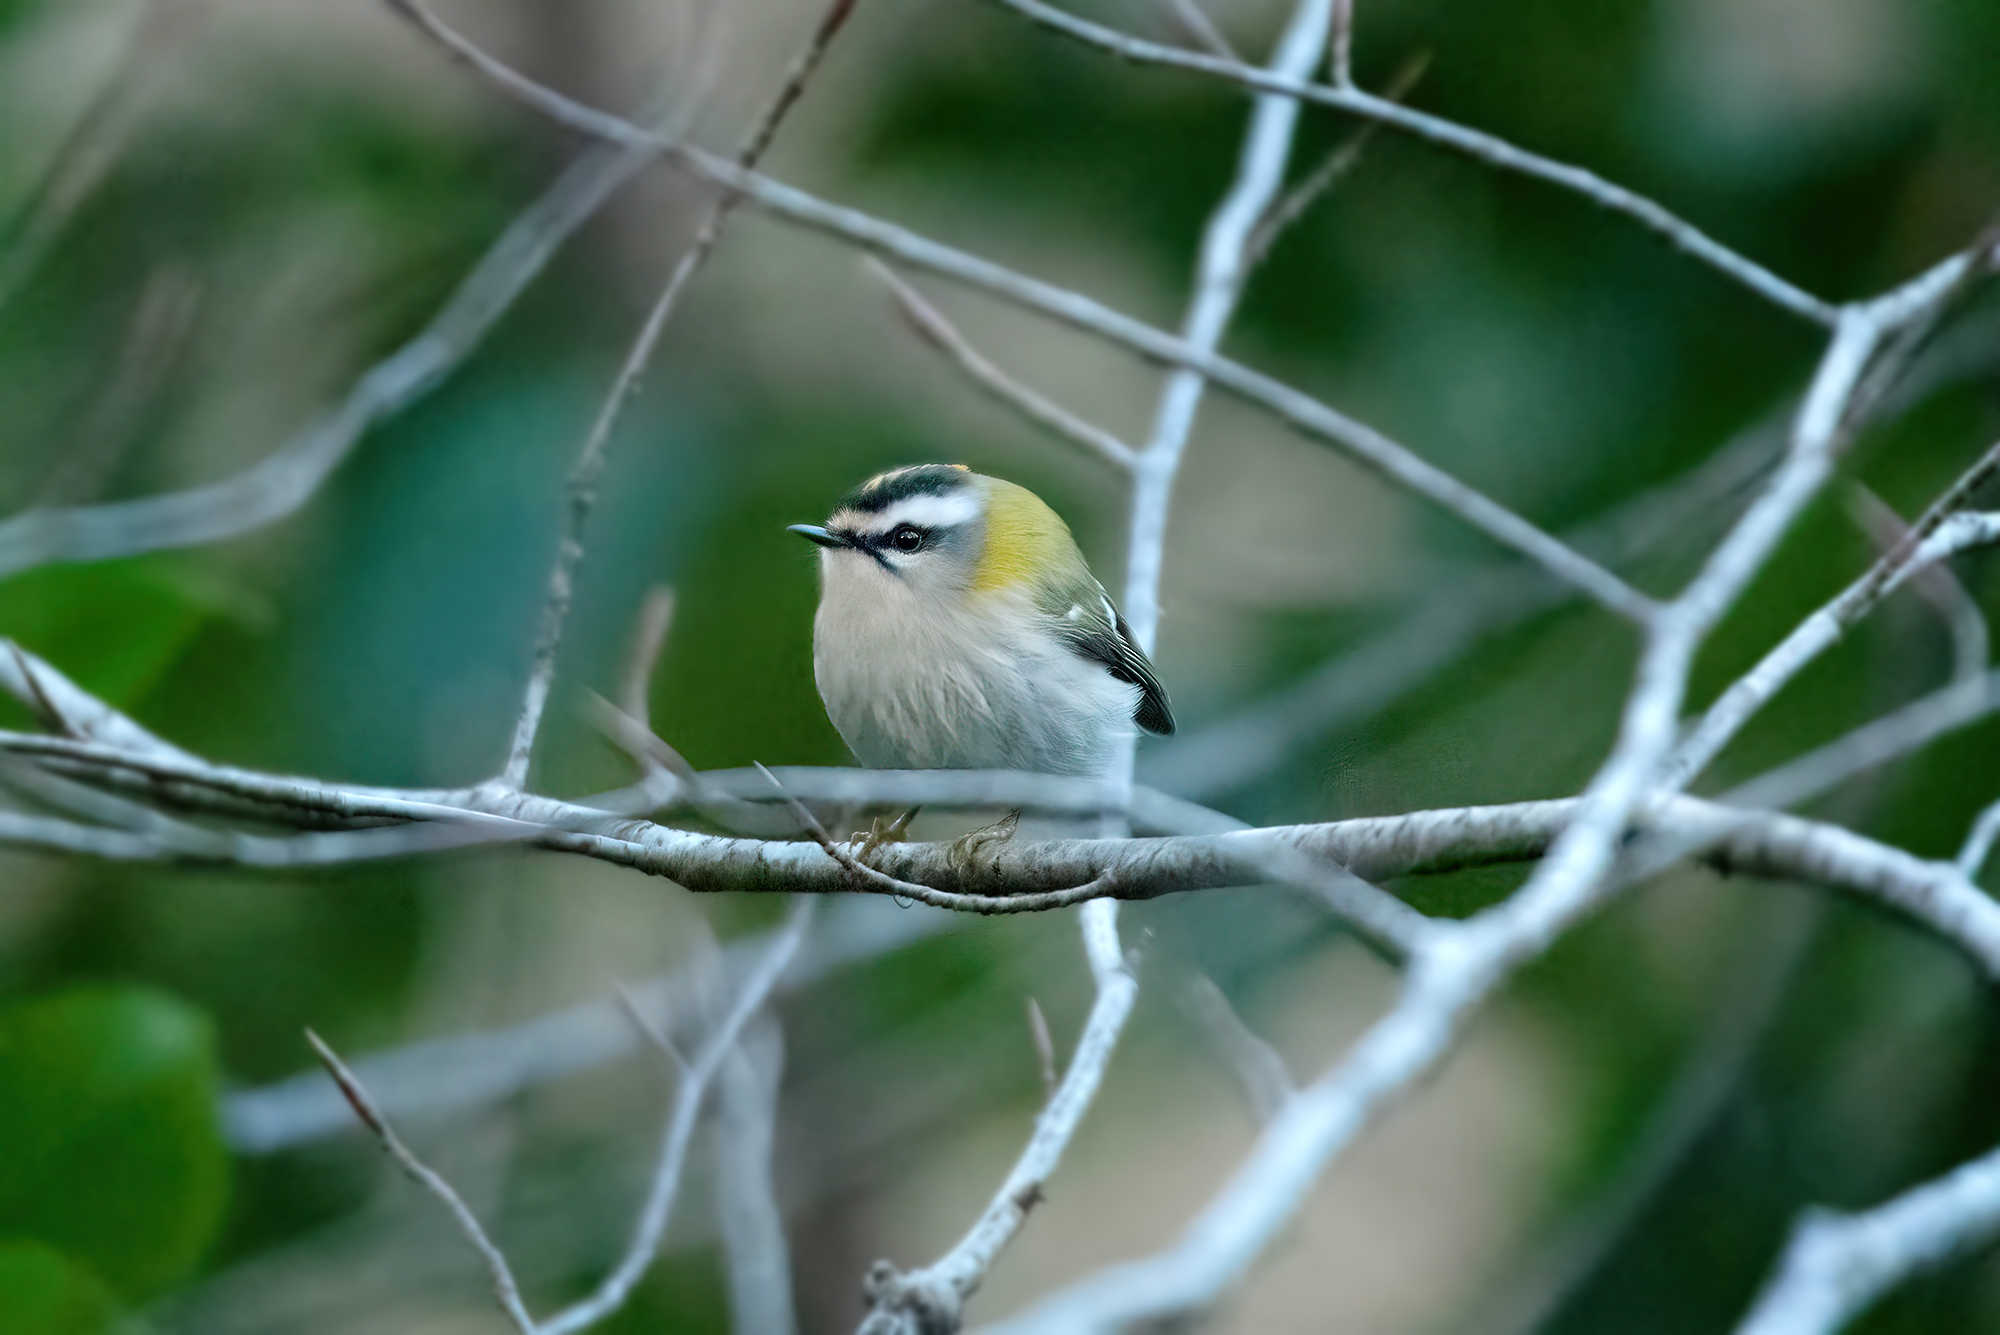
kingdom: Animalia
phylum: Chordata
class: Aves
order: Passeriformes
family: Regulidae
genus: Regulus
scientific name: Regulus ignicapilla
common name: Firecrest
